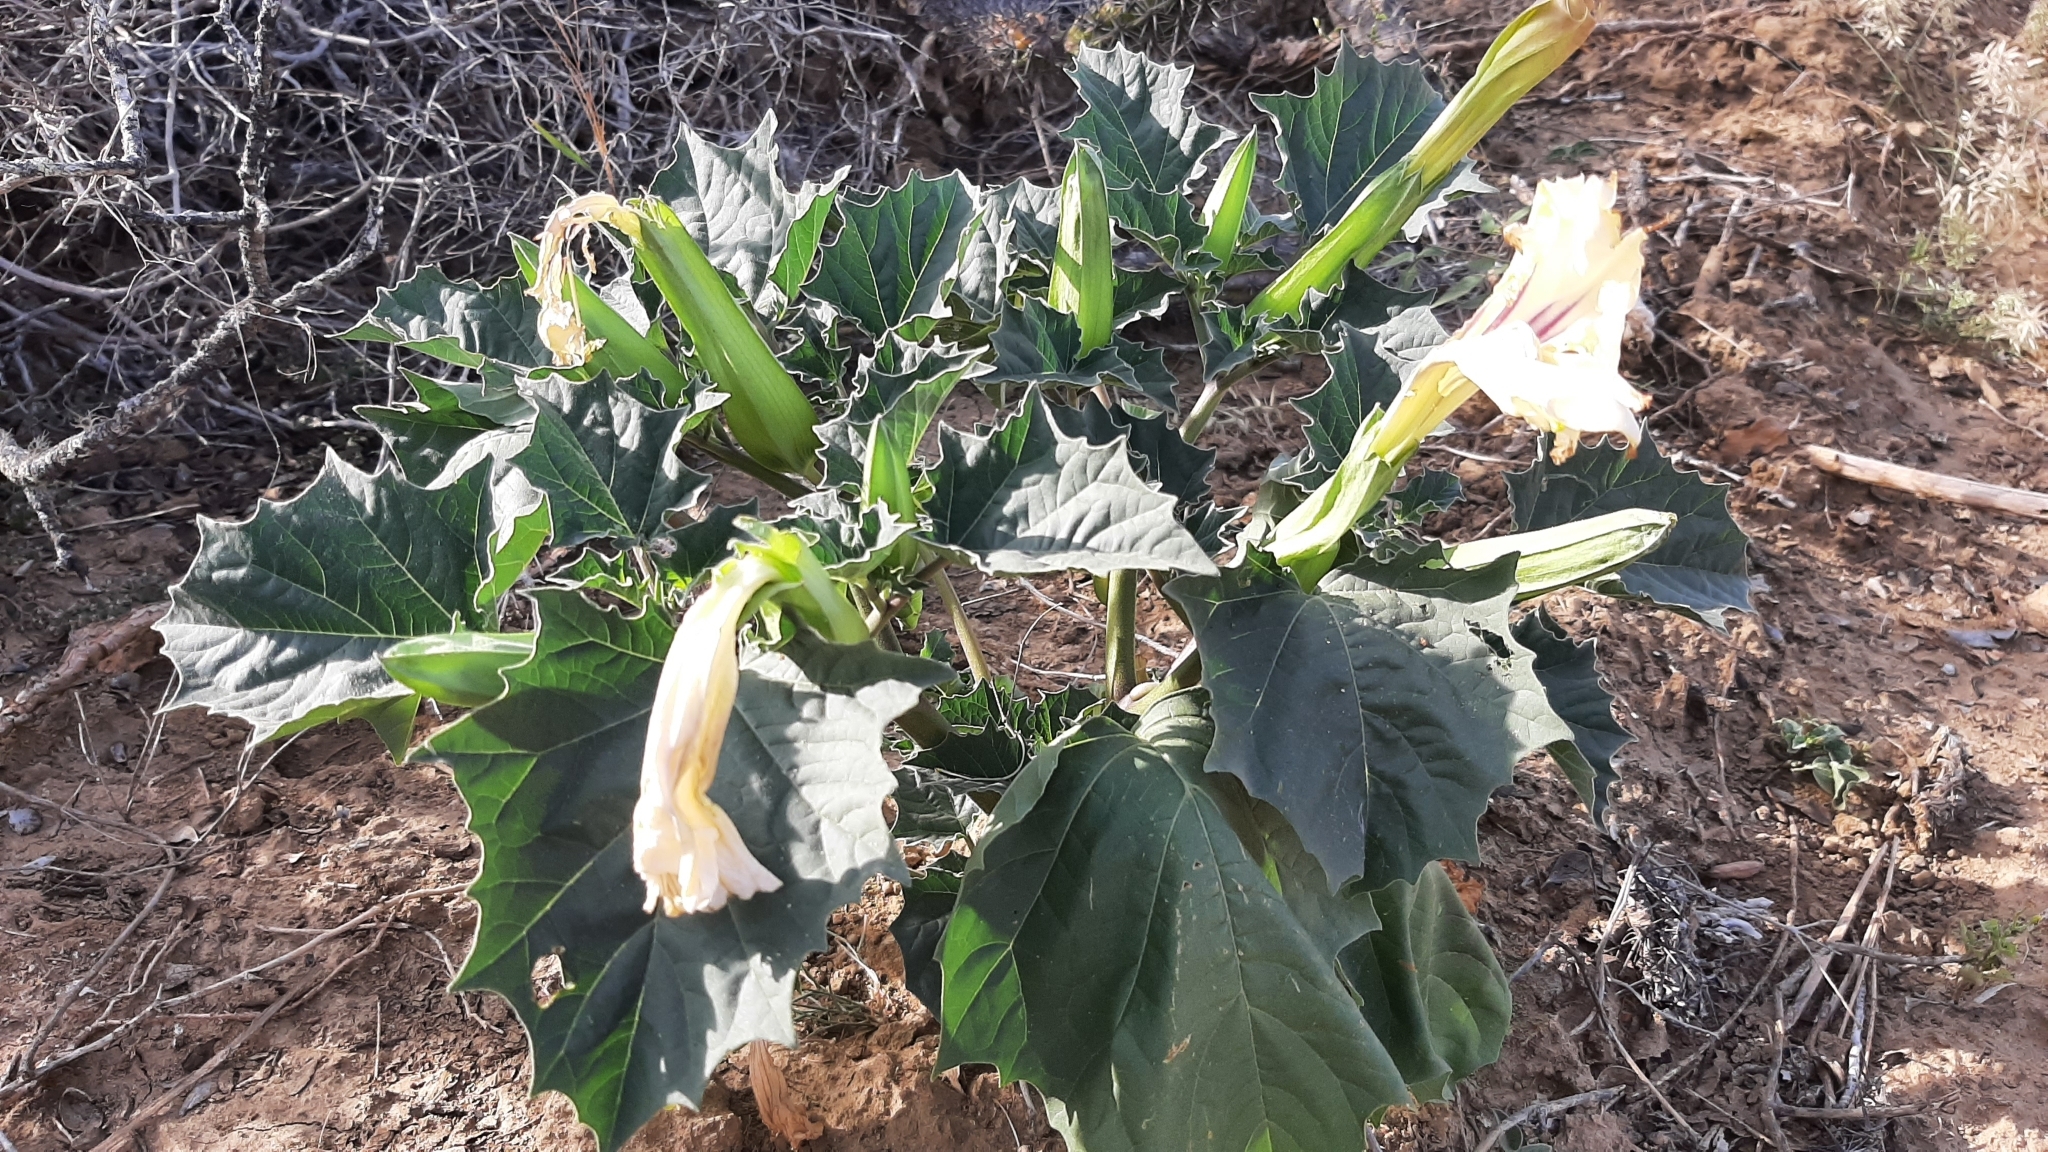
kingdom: Plantae
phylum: Tracheophyta
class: Magnoliopsida
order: Solanales
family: Solanaceae
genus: Datura
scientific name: Datura discolor
